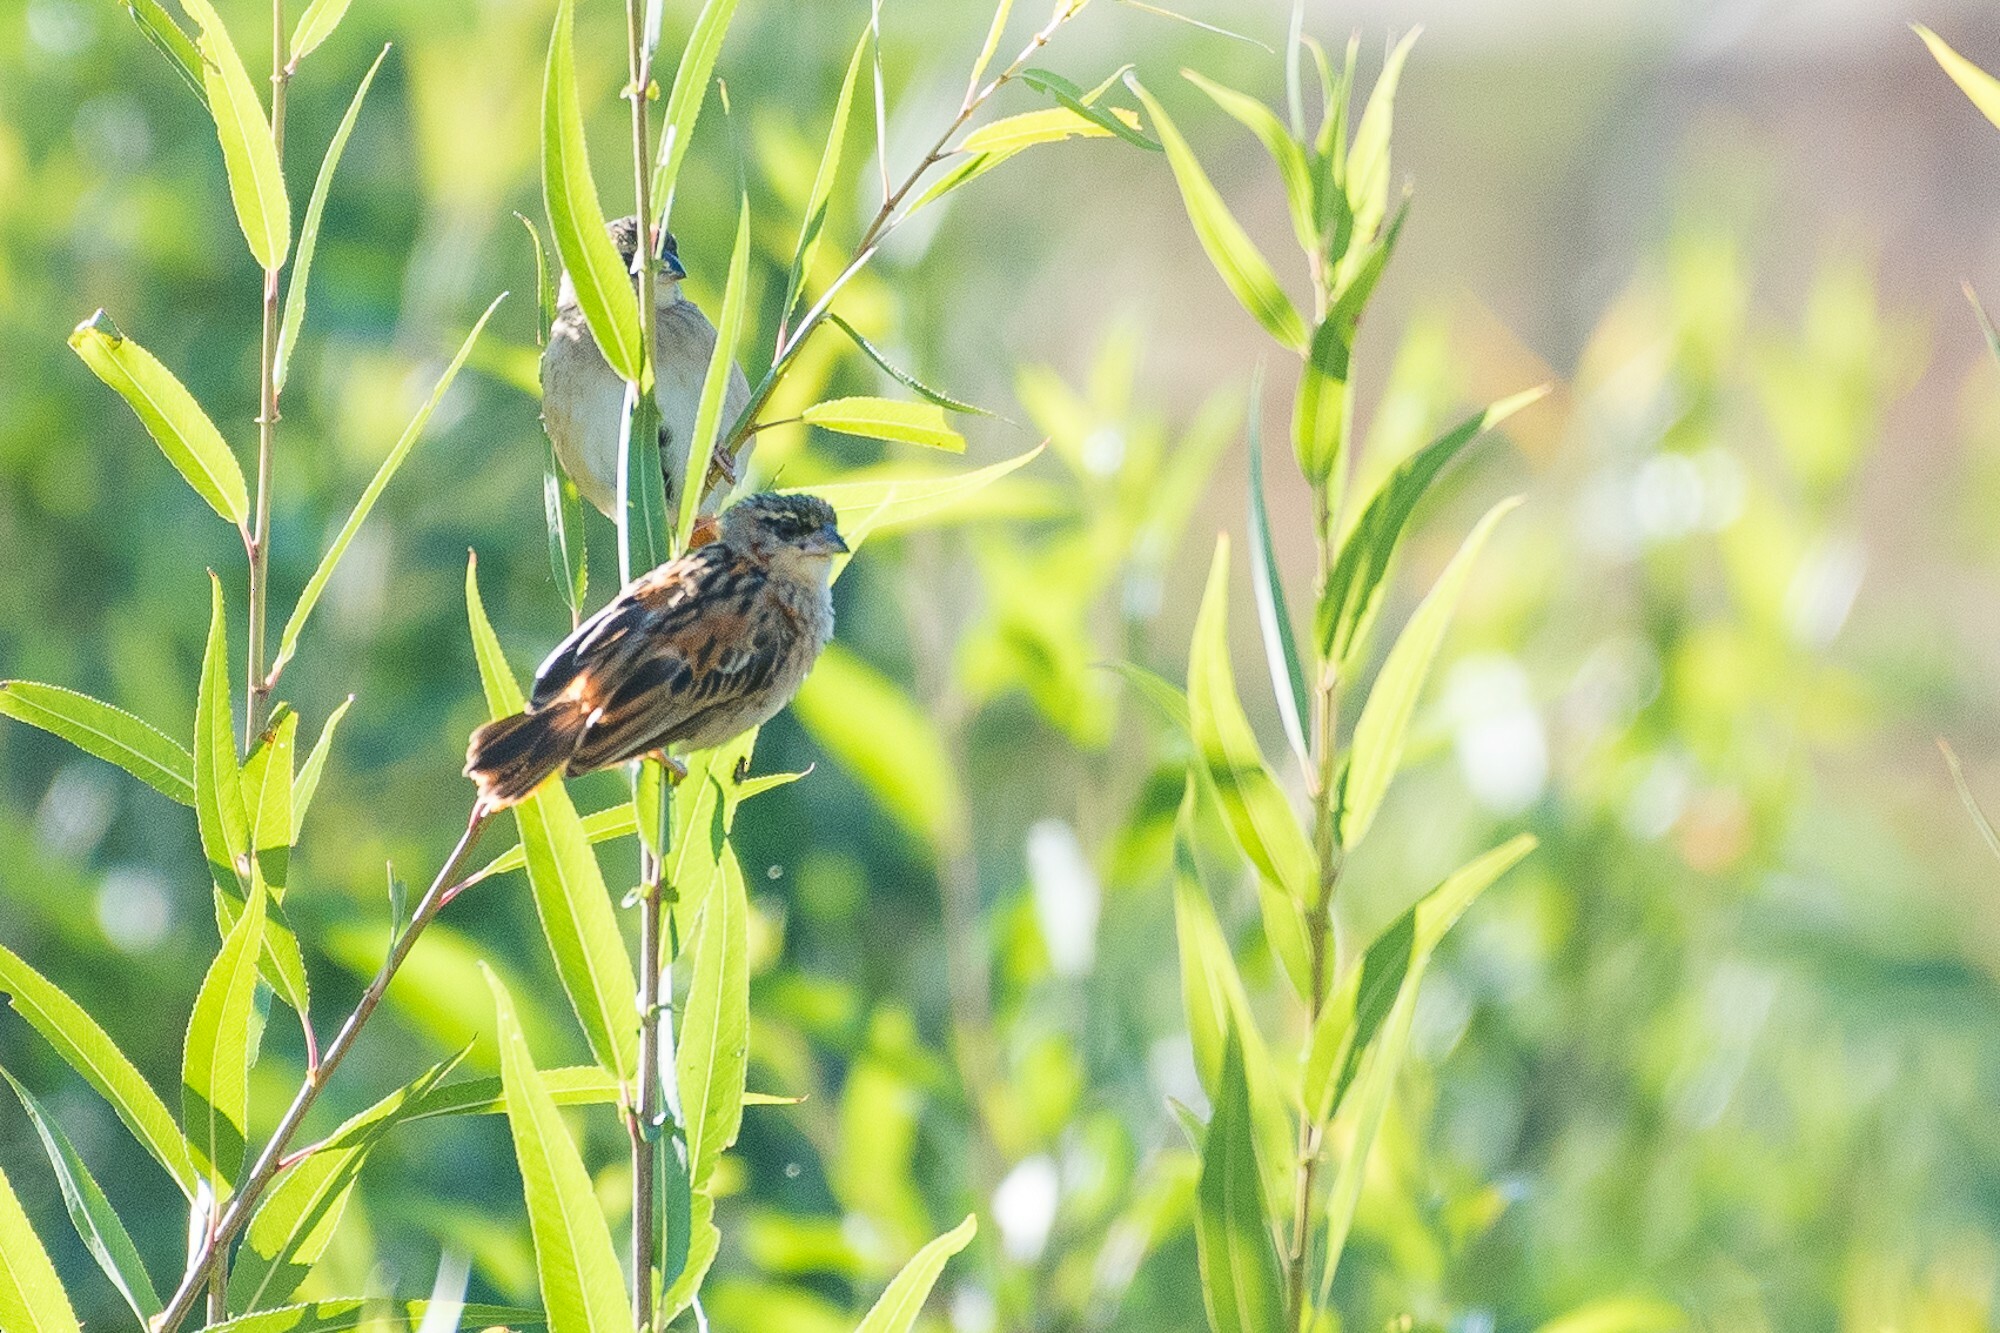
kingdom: Animalia
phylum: Chordata
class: Aves
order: Passeriformes
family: Ploceidae
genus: Euplectes
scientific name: Euplectes franciscanus
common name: Northern red bishop
